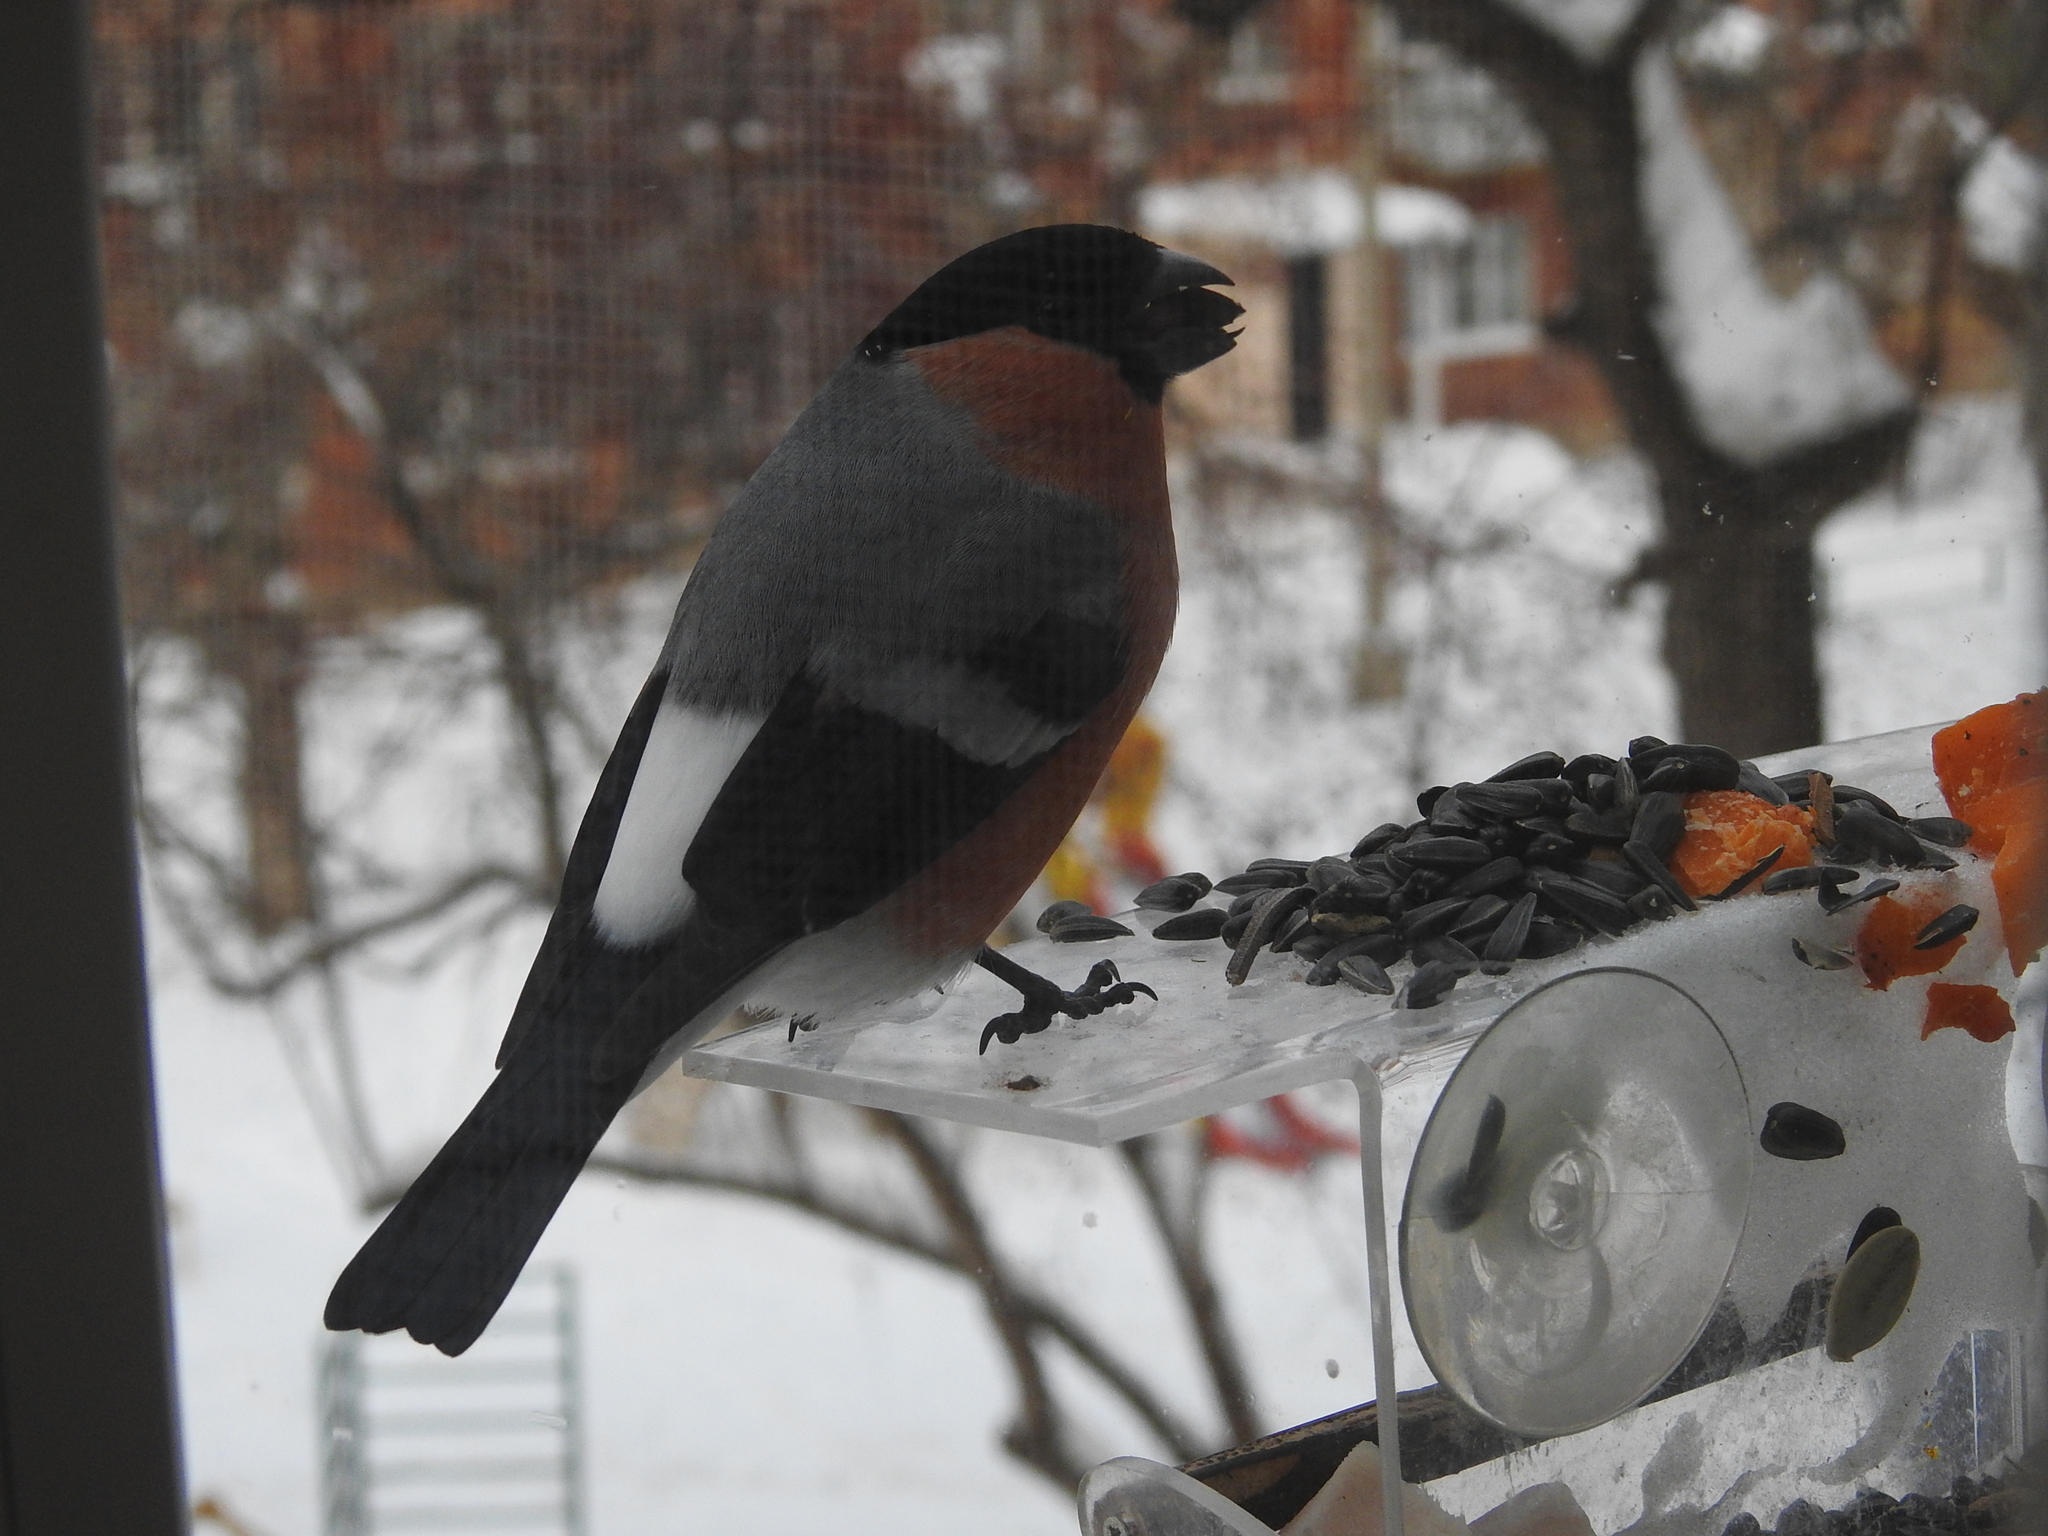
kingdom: Animalia
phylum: Chordata
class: Aves
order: Passeriformes
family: Fringillidae
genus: Pyrrhula
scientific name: Pyrrhula pyrrhula
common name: Eurasian bullfinch
